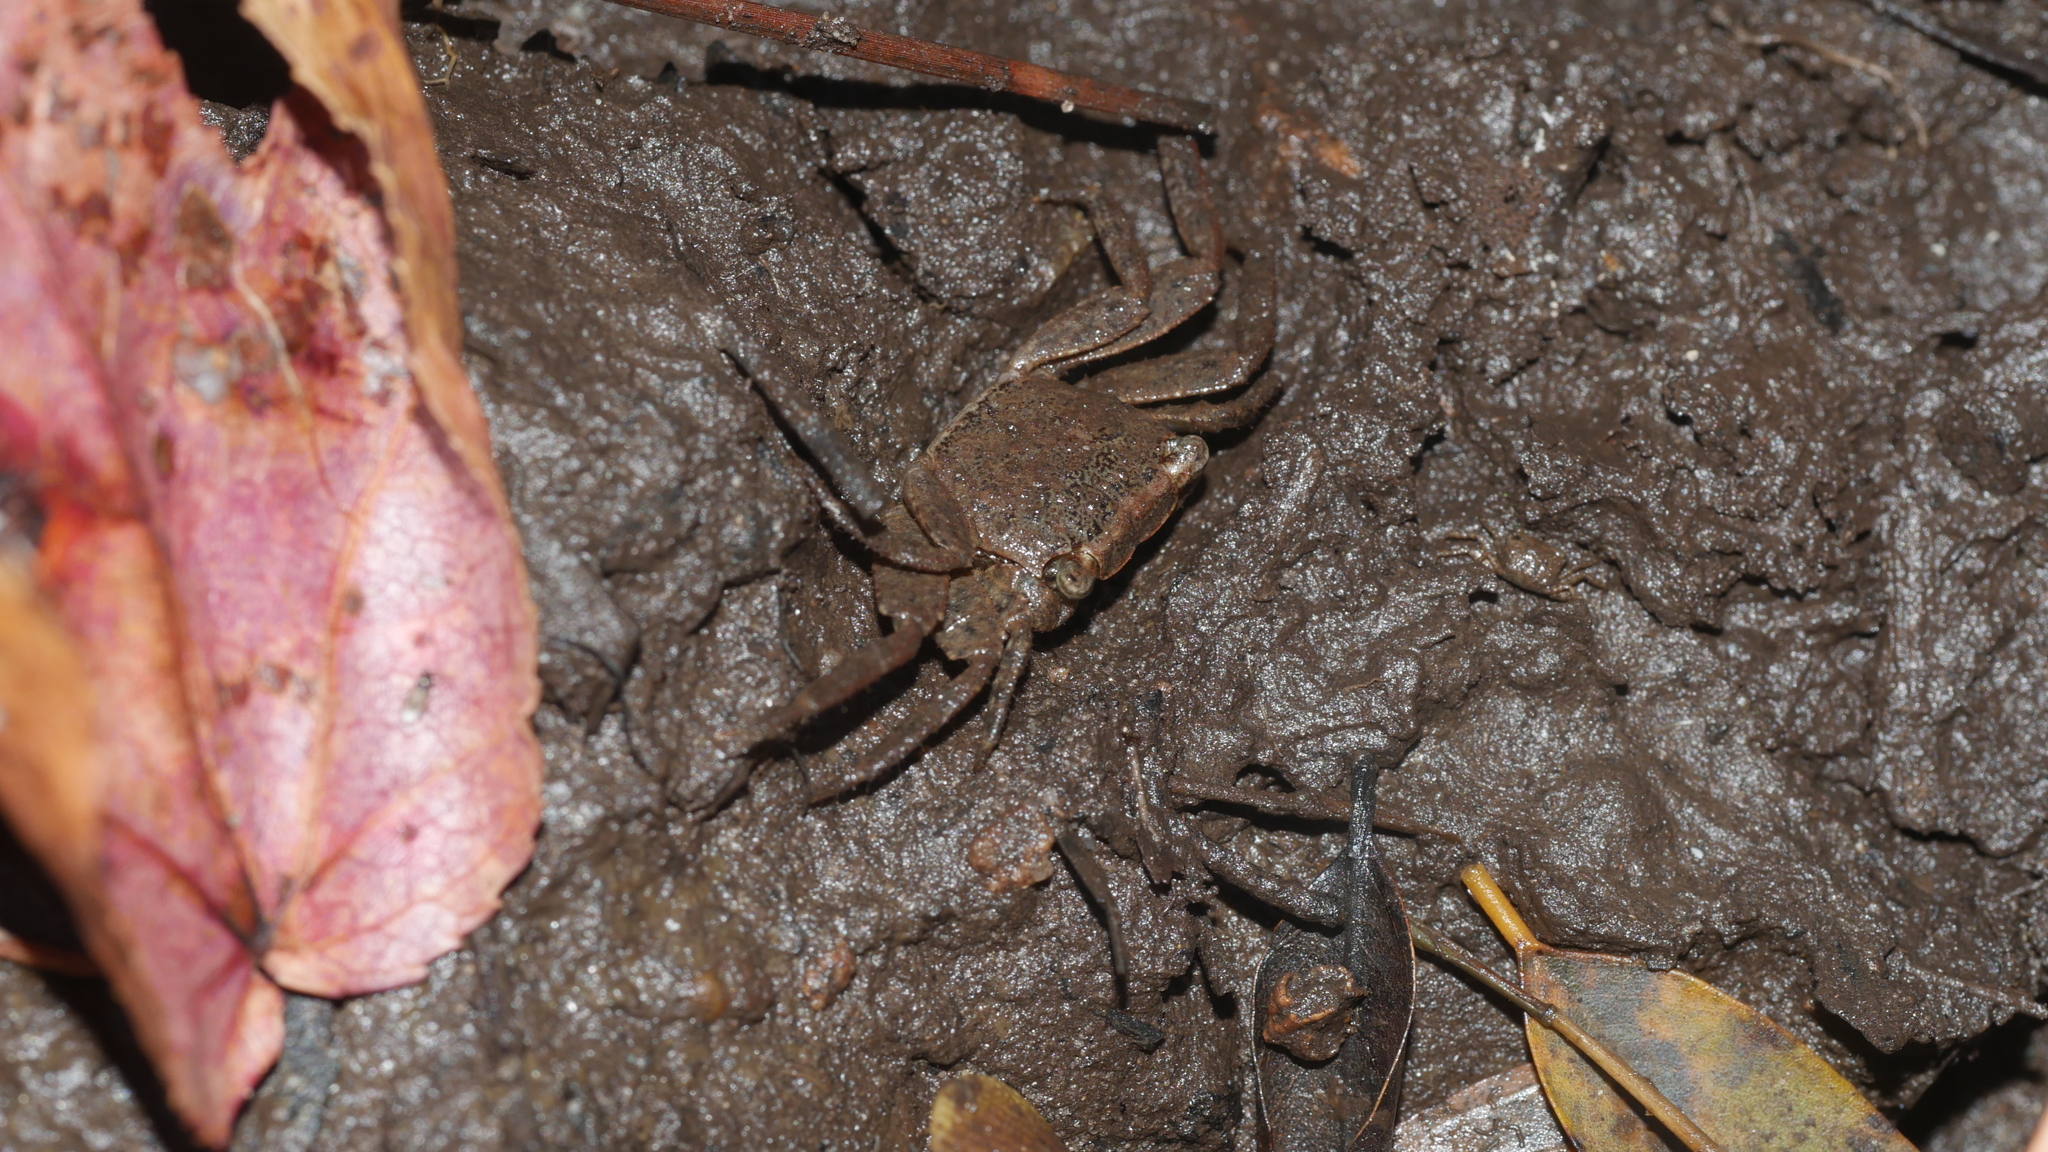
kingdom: Animalia
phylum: Arthropoda
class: Malacostraca
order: Decapoda
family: Sesarmidae
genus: Armases
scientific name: Armases cinereum
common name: Squareback marsh crab
